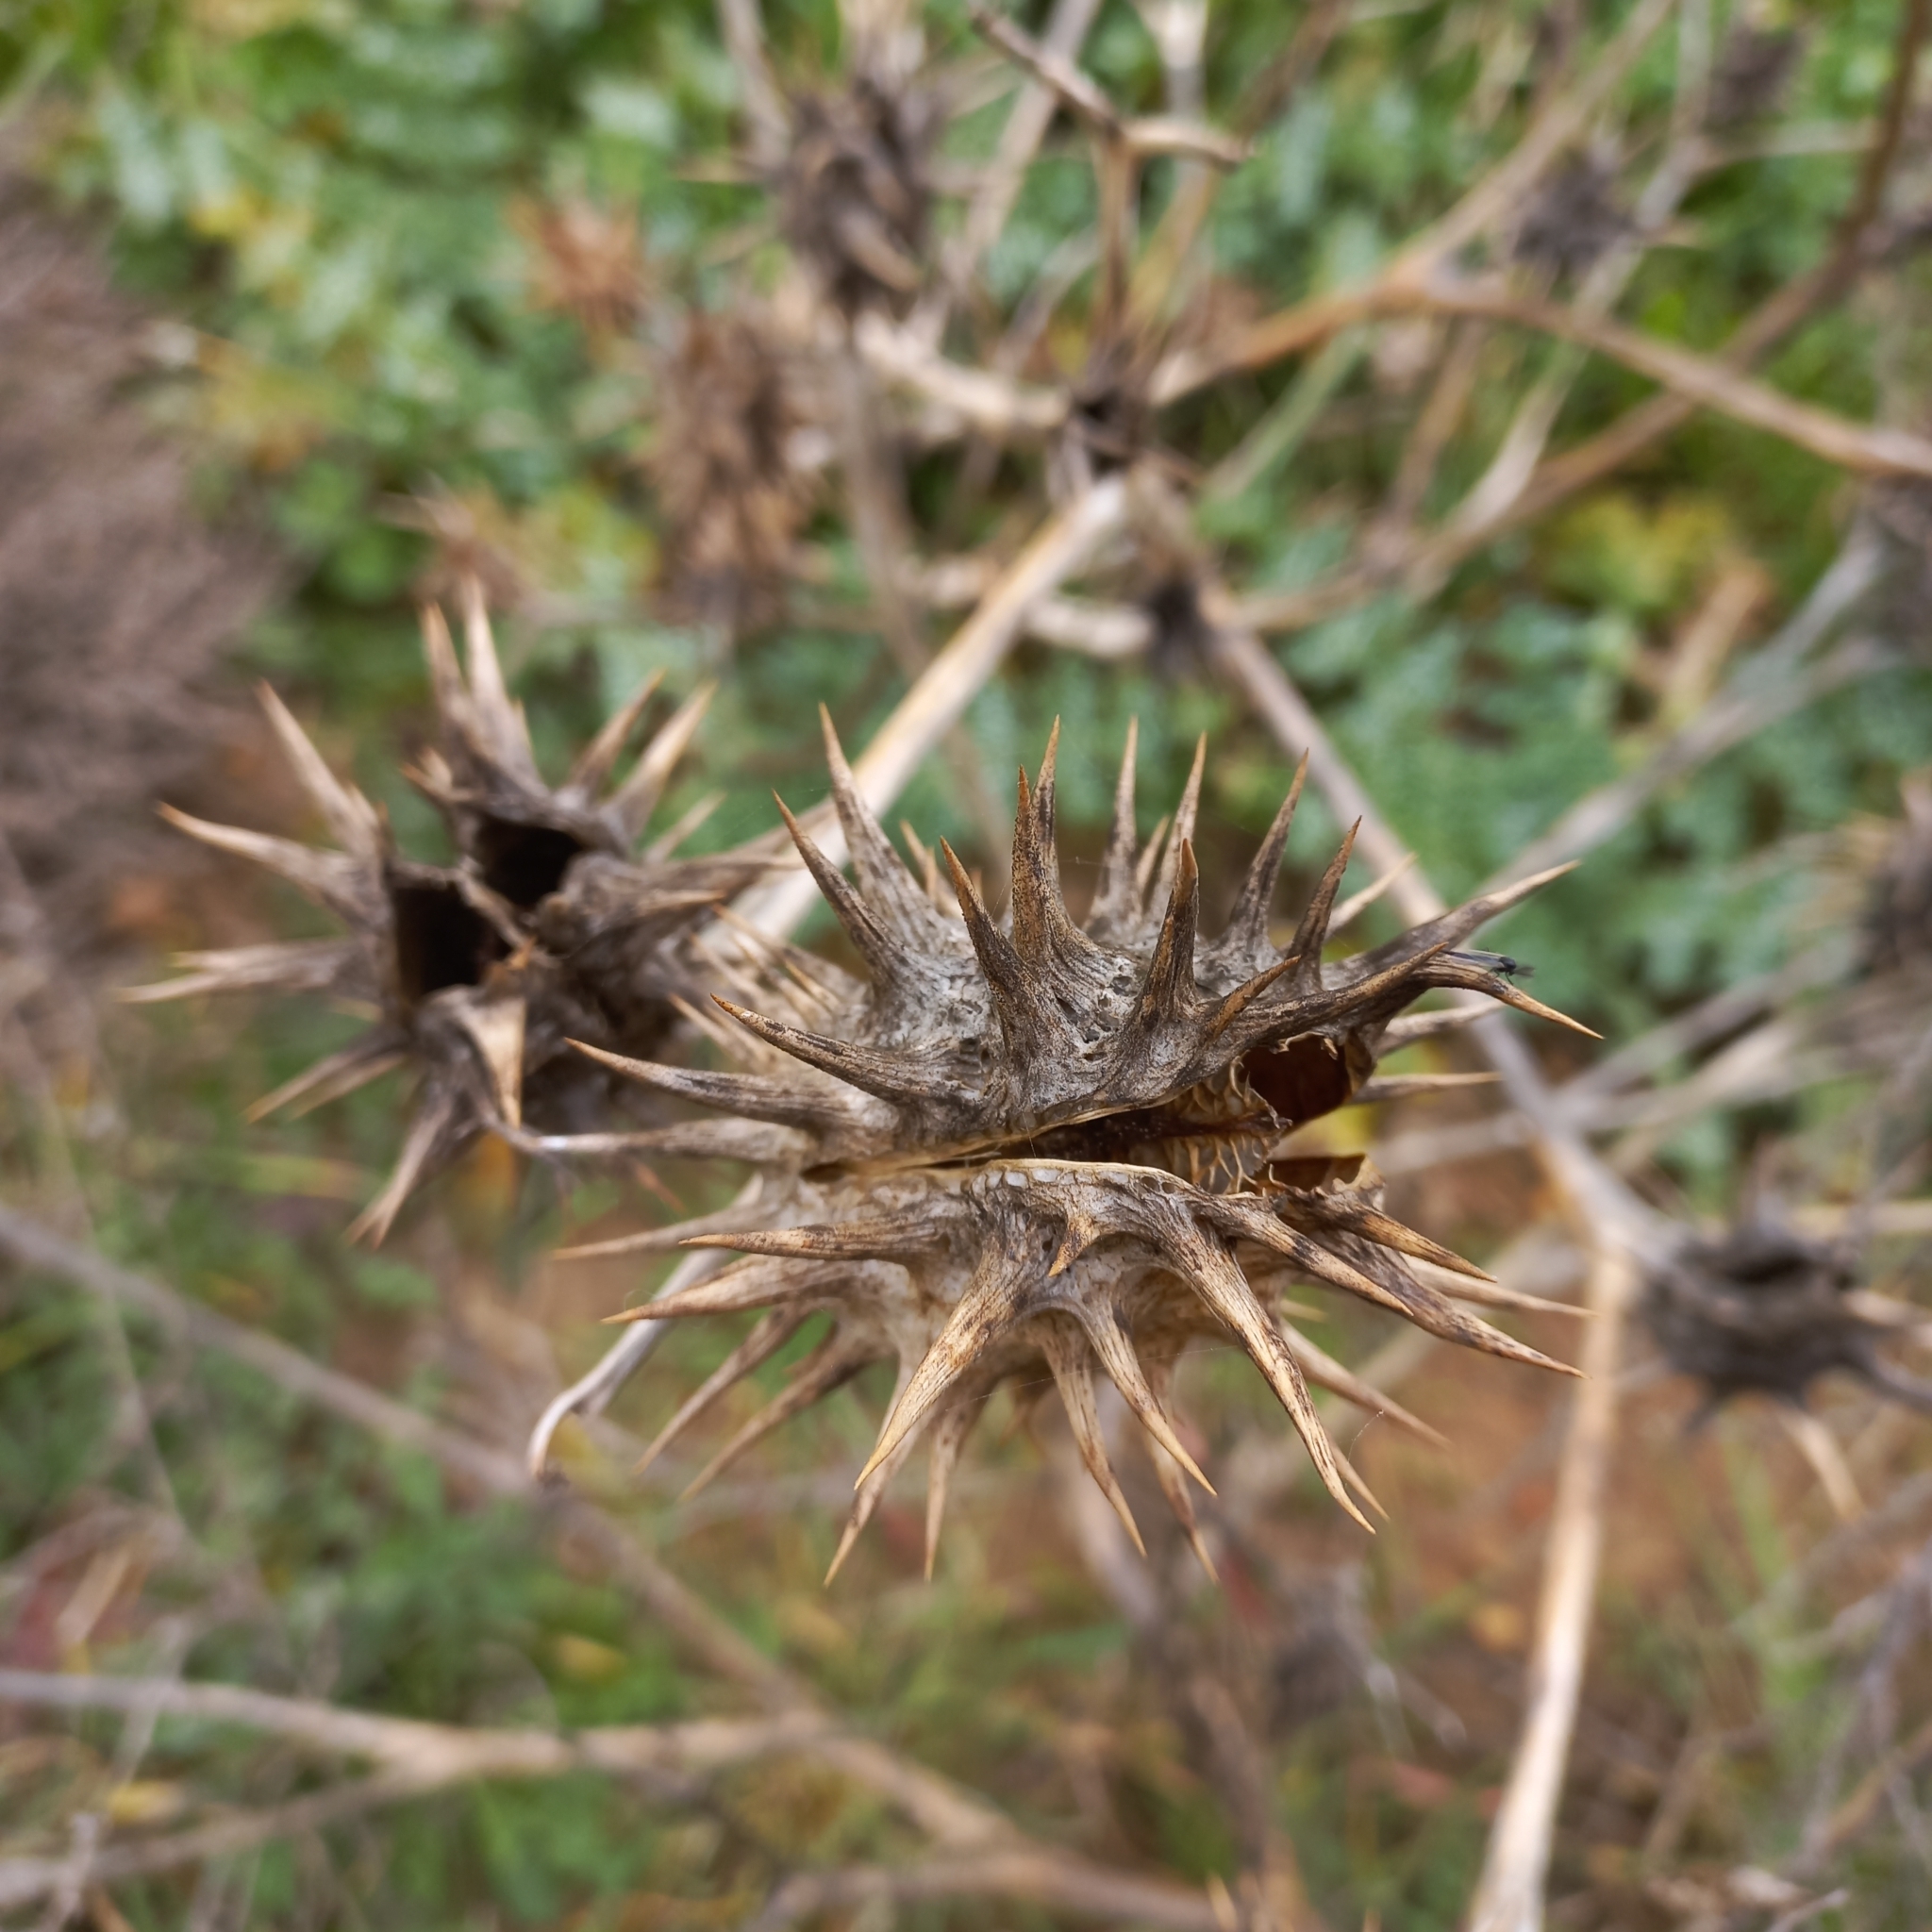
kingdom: Plantae
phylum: Tracheophyta
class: Magnoliopsida
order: Solanales
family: Solanaceae
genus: Datura
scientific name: Datura ferox
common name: Angel's-trumpets
